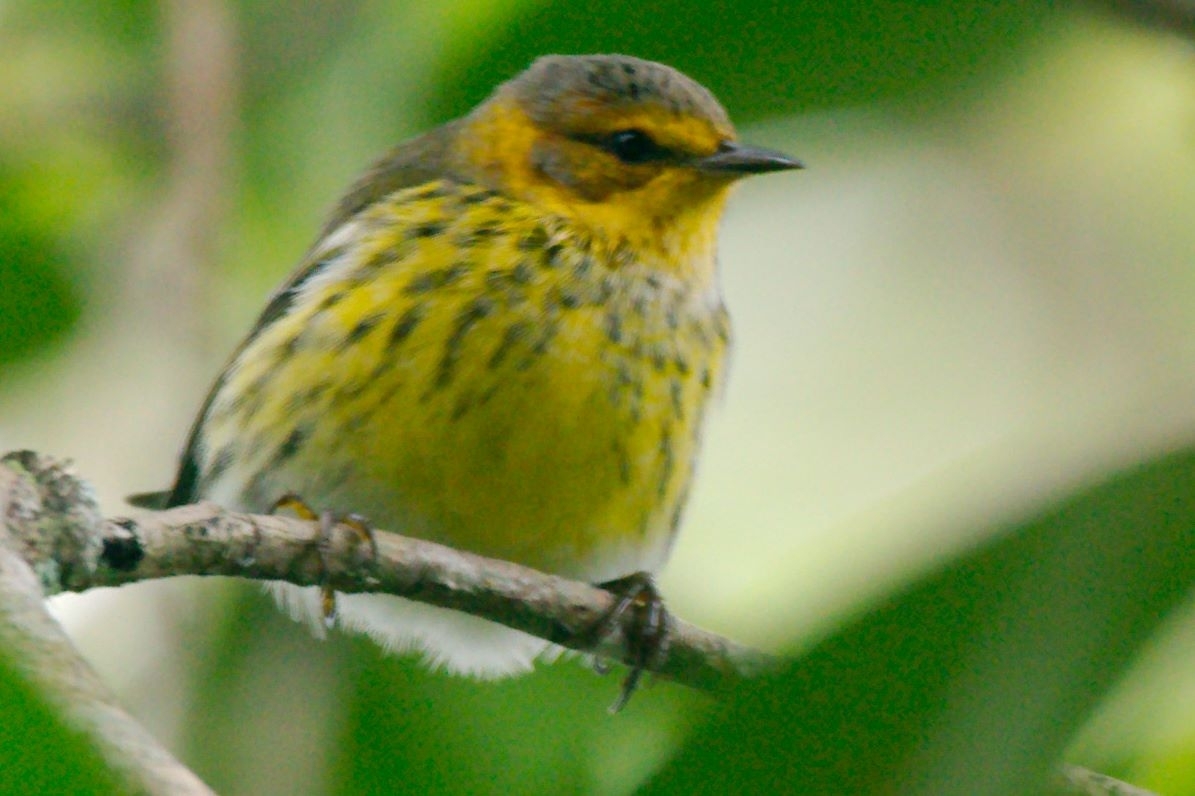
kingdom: Animalia
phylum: Chordata
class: Aves
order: Passeriformes
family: Parulidae
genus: Setophaga
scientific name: Setophaga tigrina
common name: Cape may warbler
